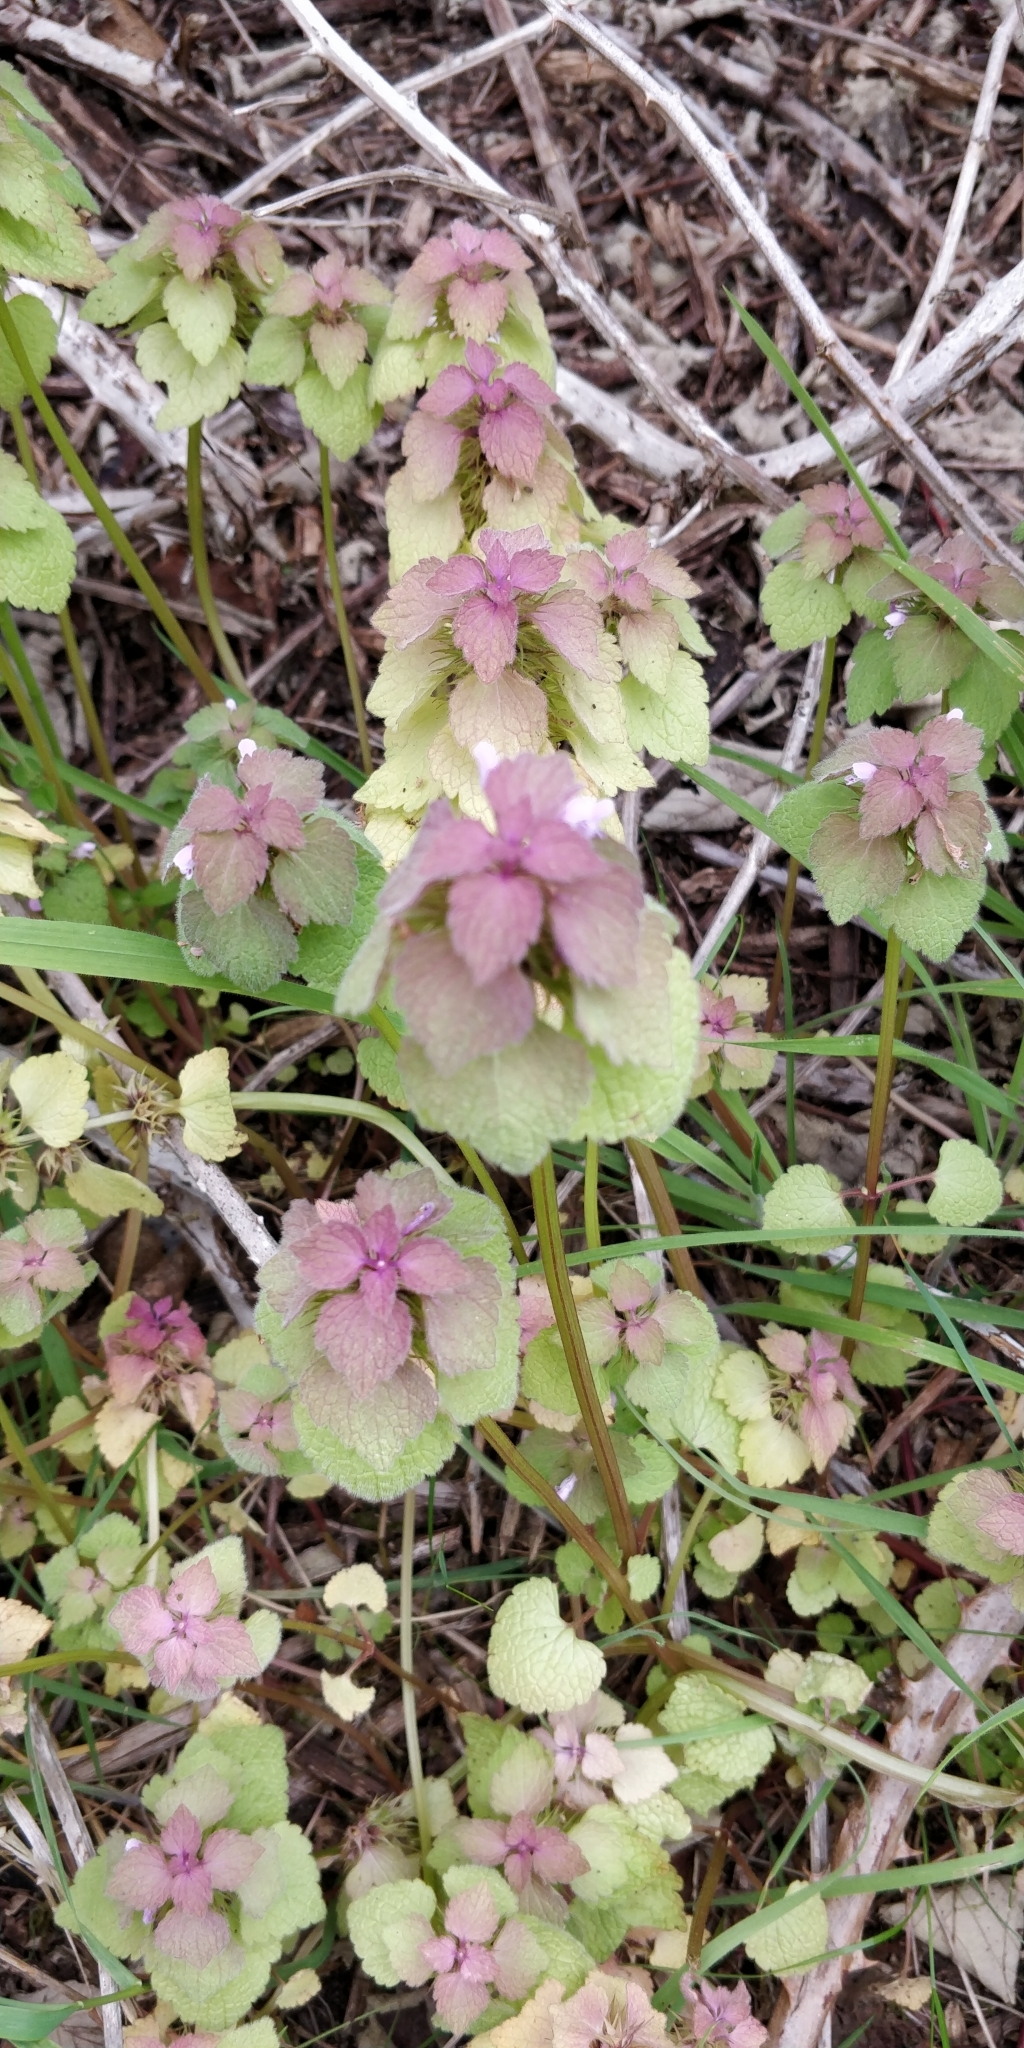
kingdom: Plantae
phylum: Tracheophyta
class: Magnoliopsida
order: Lamiales
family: Lamiaceae
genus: Lamium
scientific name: Lamium purpureum
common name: Red dead-nettle
